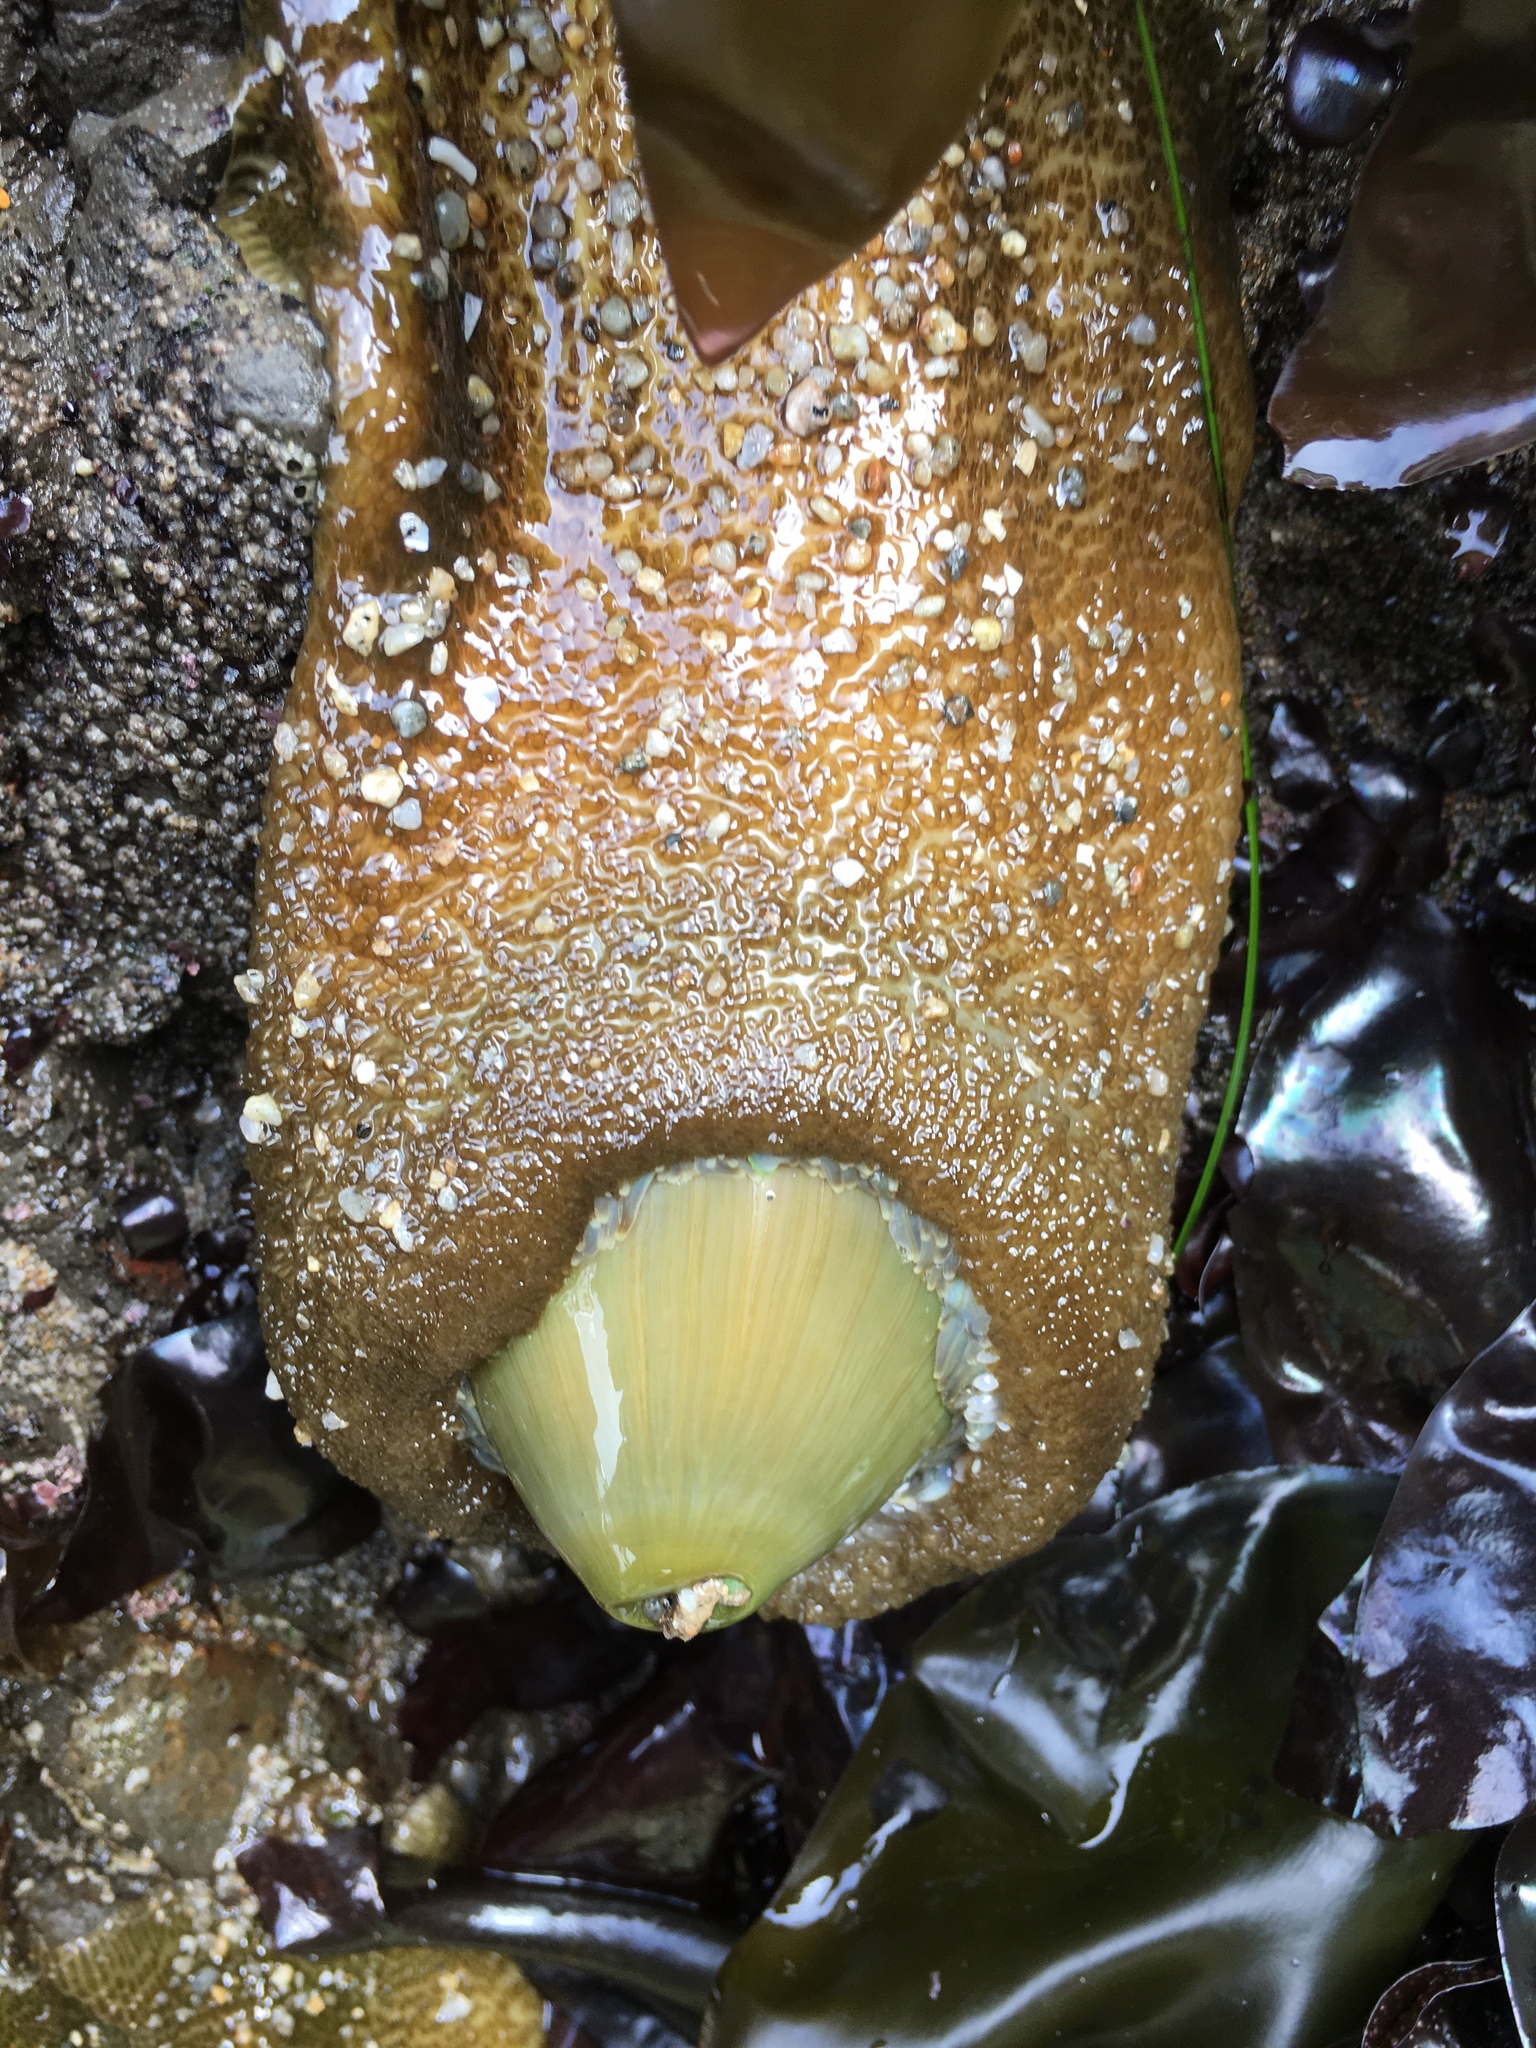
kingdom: Animalia
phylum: Cnidaria
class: Anthozoa
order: Actiniaria
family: Actiniidae
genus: Anthopleura
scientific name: Anthopleura xanthogrammica
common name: Giant green anemone
